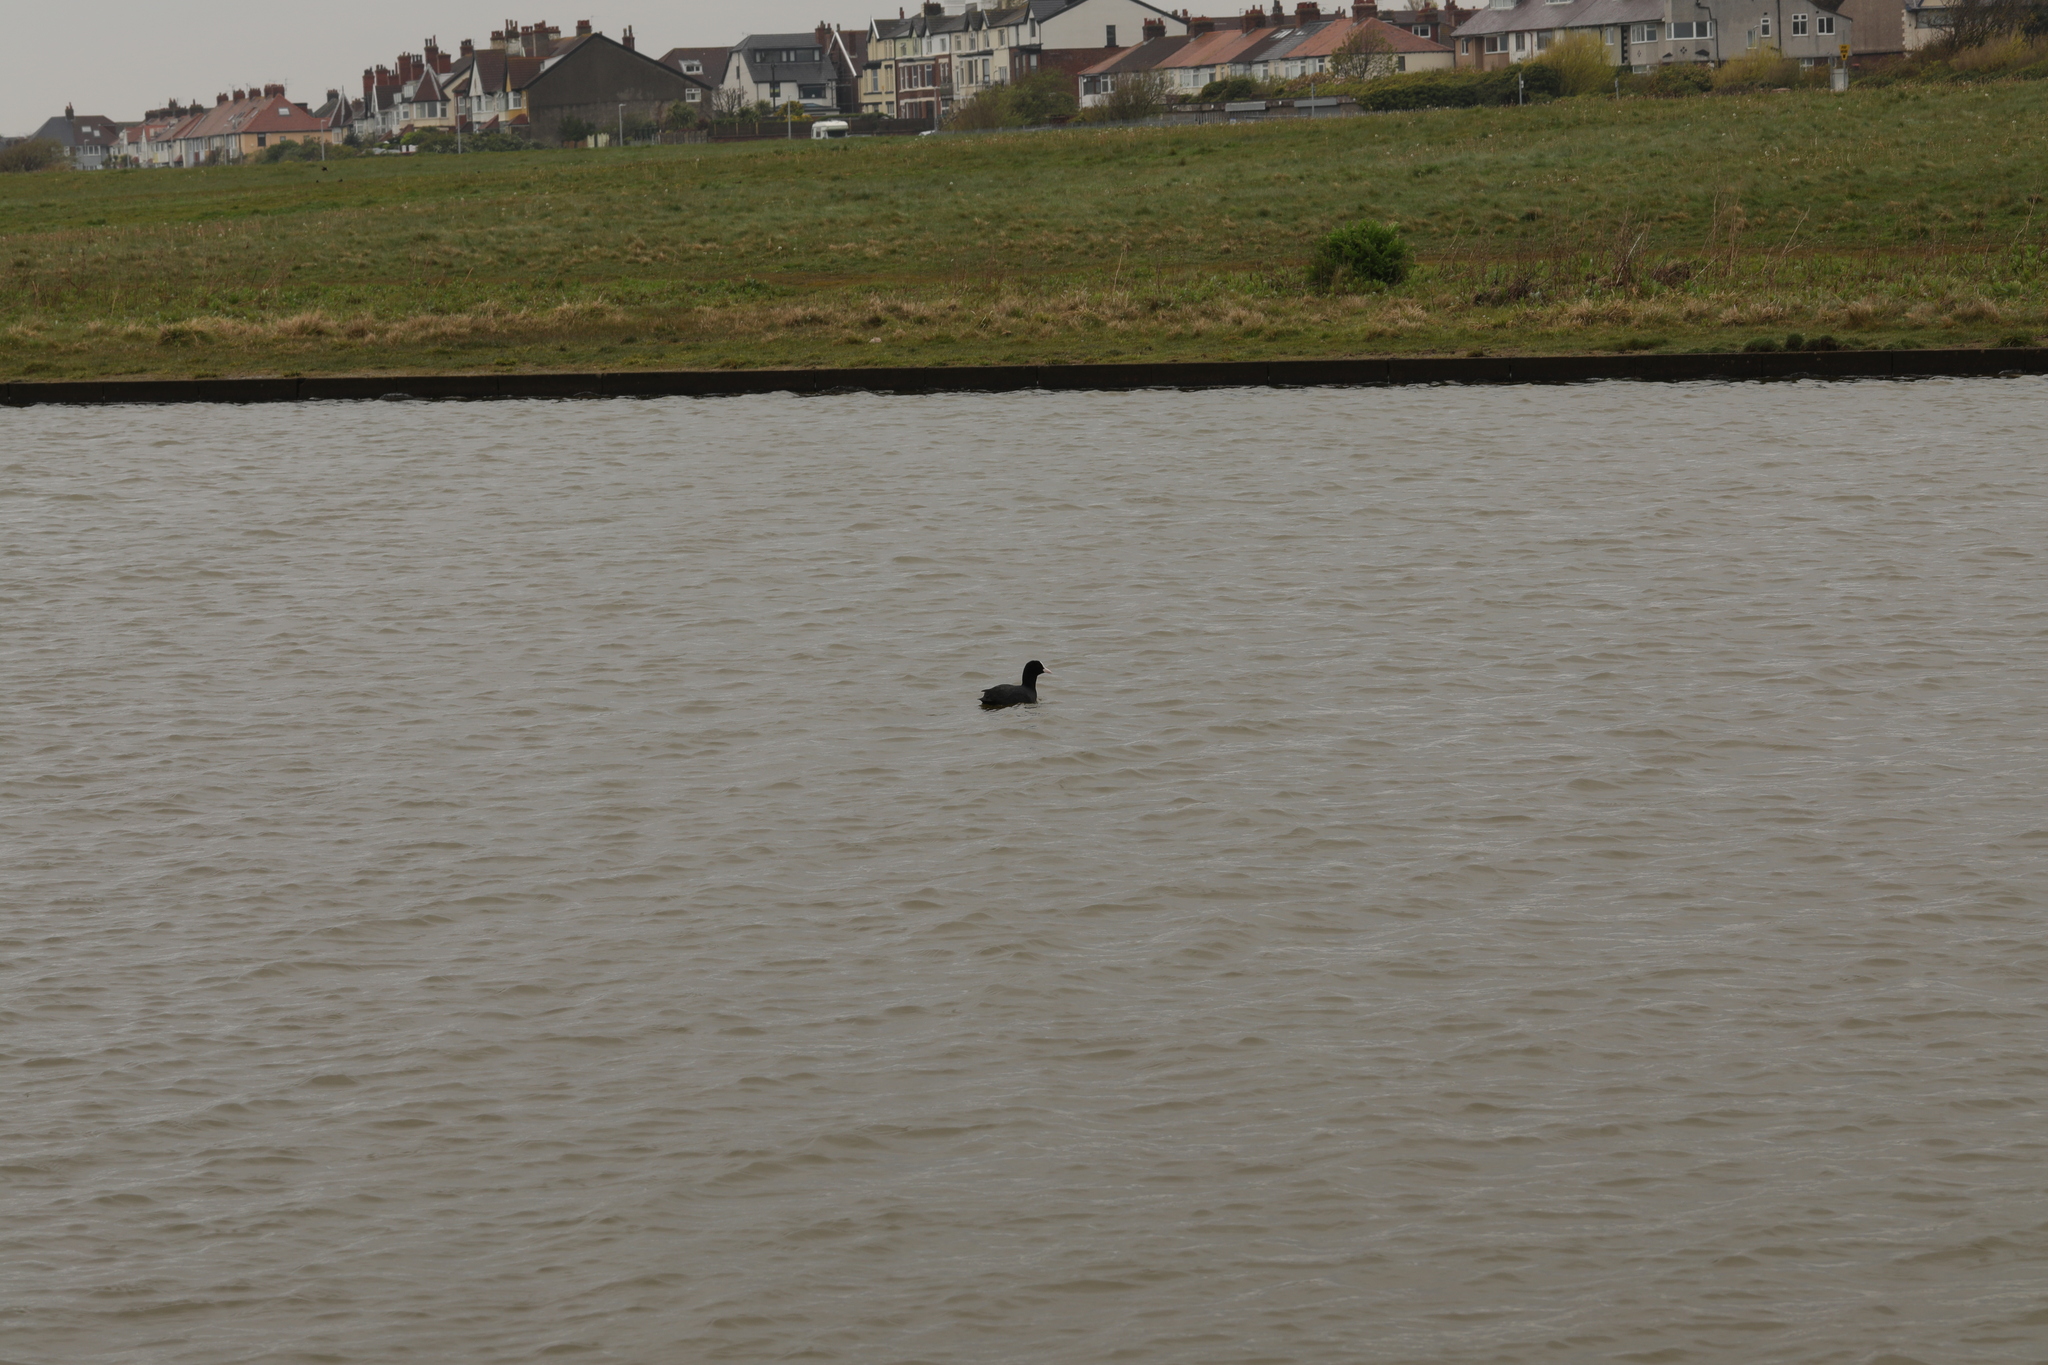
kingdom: Animalia
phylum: Chordata
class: Aves
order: Gruiformes
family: Rallidae
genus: Fulica
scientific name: Fulica atra
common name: Eurasian coot
